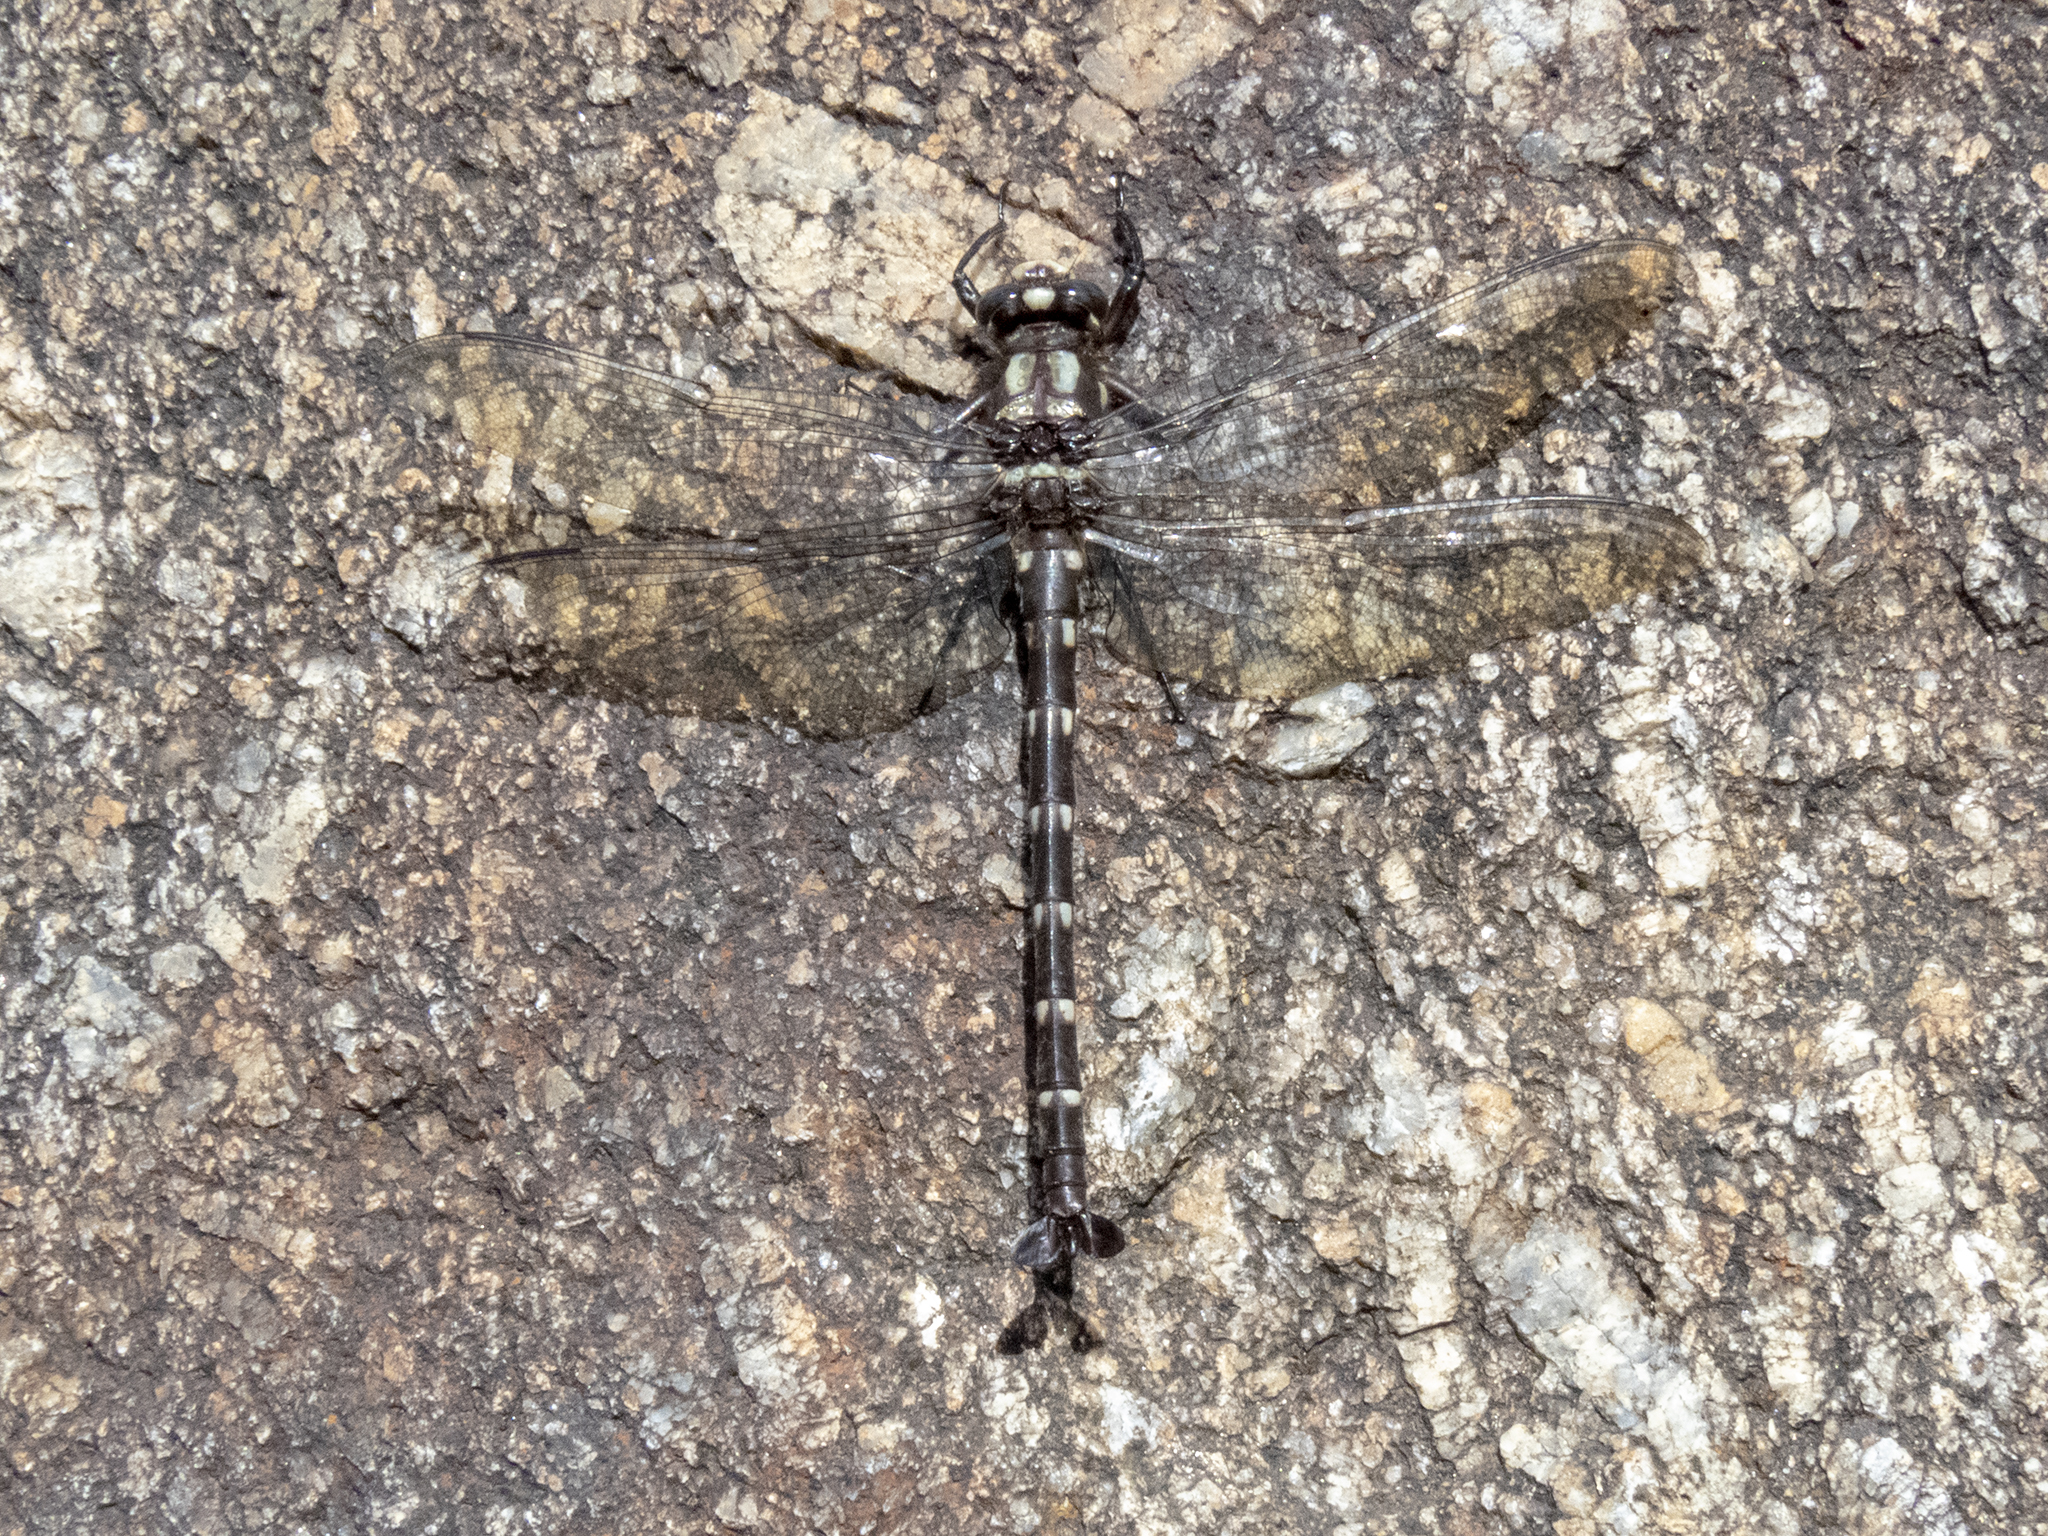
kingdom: Animalia
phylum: Arthropoda
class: Insecta
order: Odonata
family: Petaluridae
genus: Uropetala
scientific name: Uropetala carovei
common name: Bush giant dragonfly
